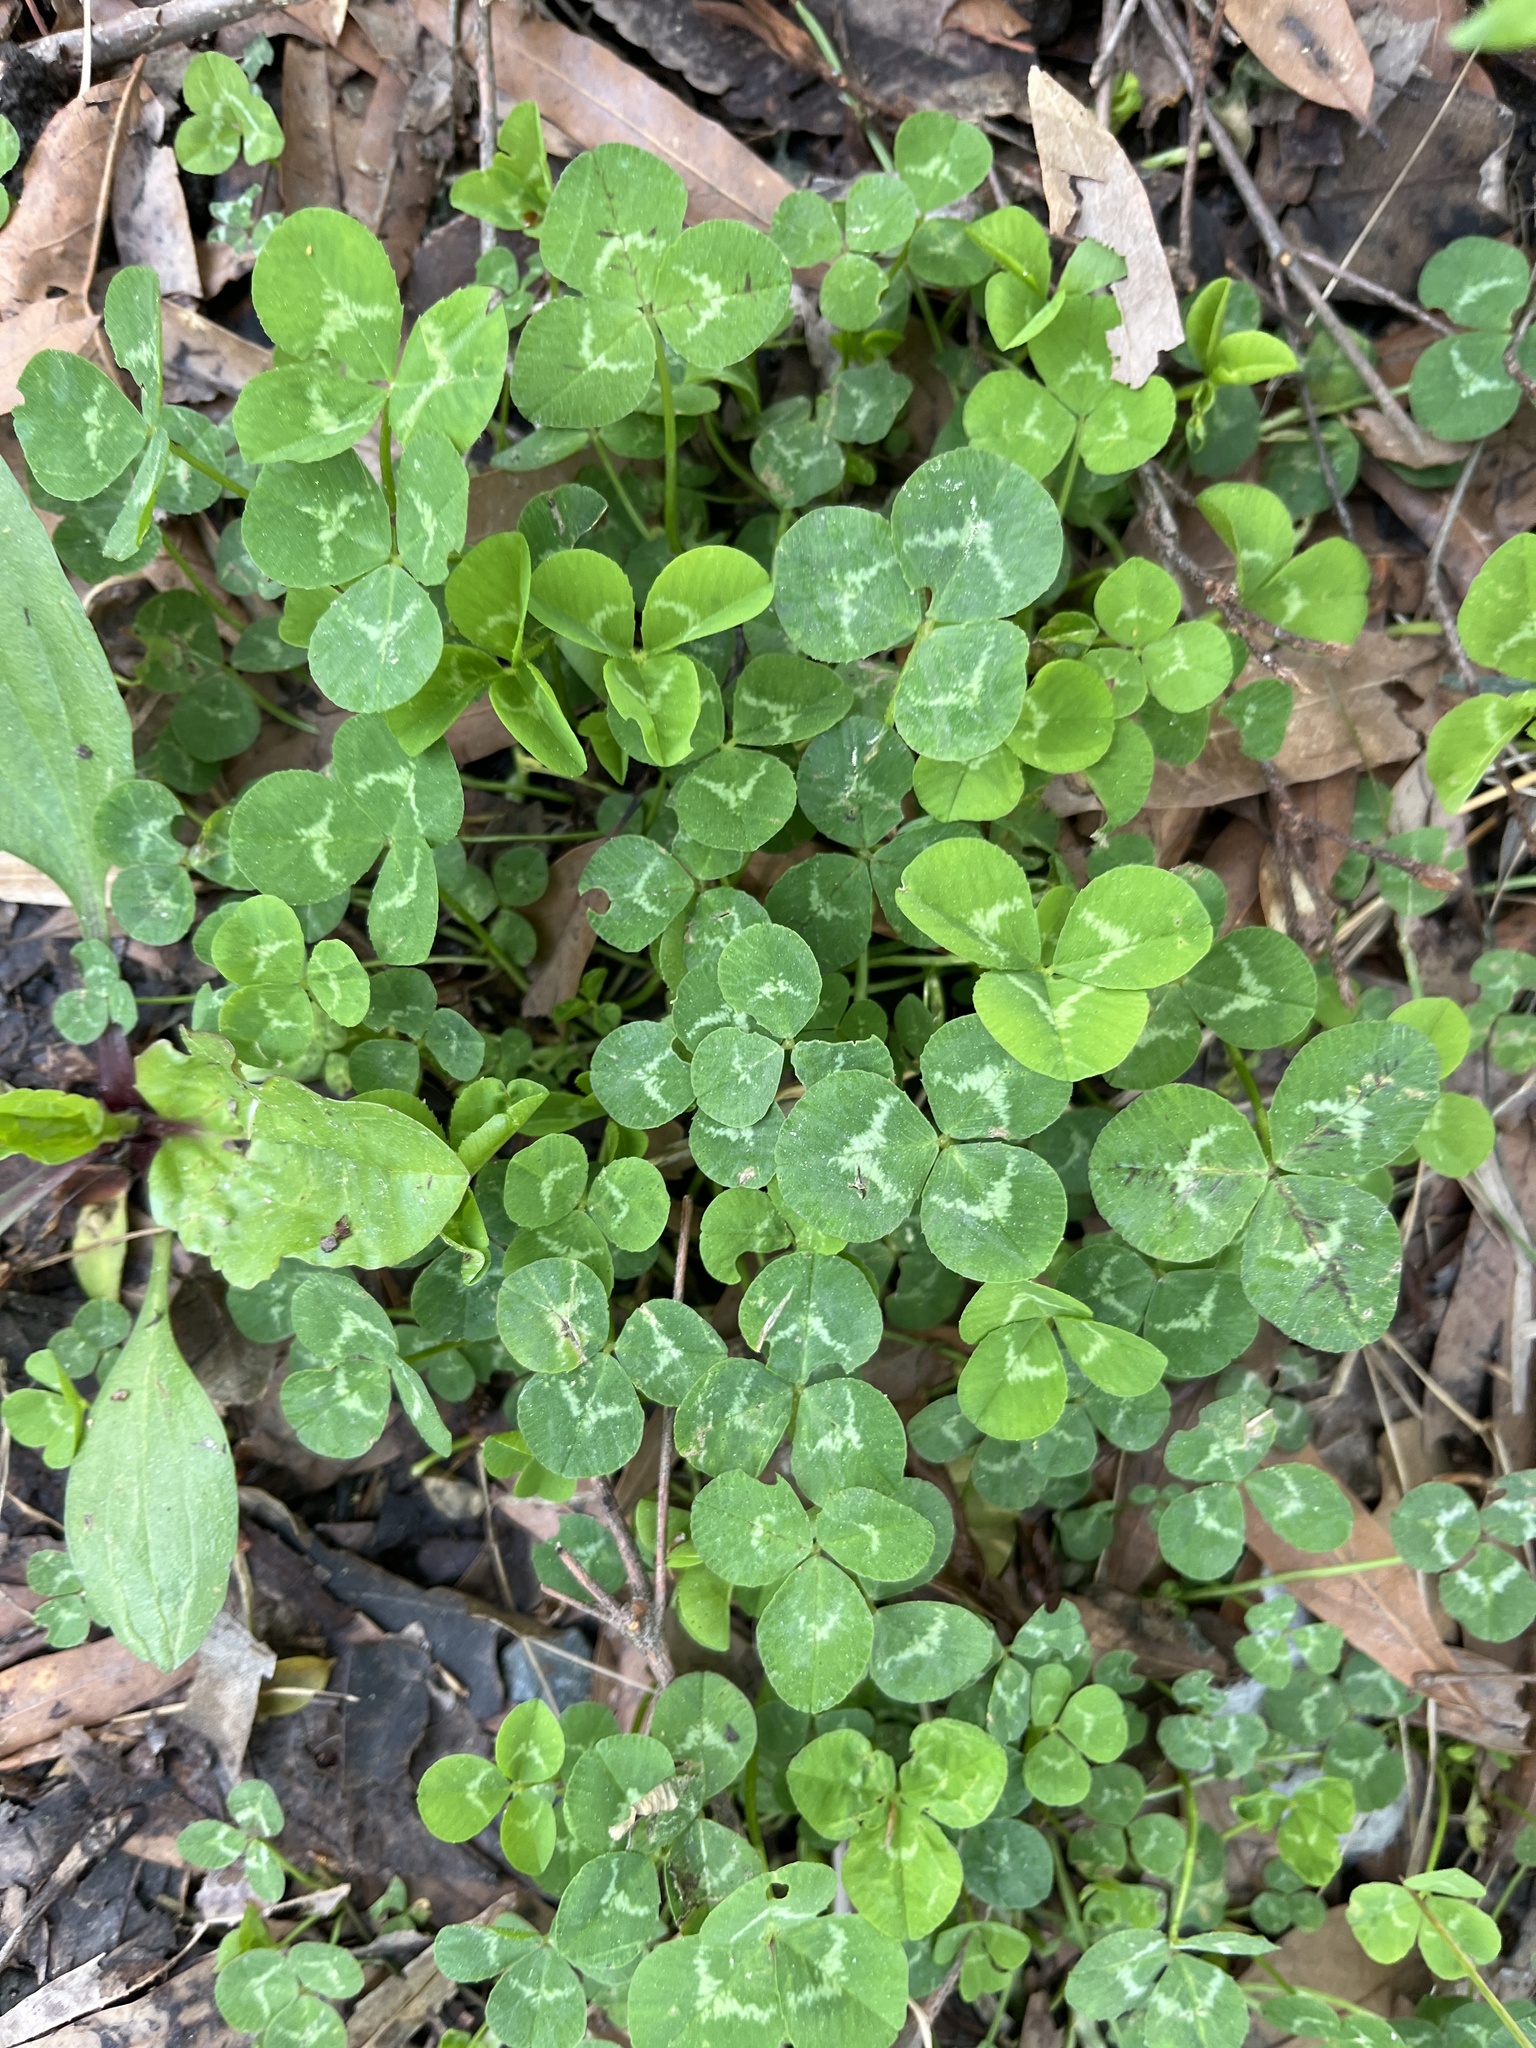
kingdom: Plantae
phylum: Tracheophyta
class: Magnoliopsida
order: Fabales
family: Fabaceae
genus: Trifolium
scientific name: Trifolium repens
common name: White clover
